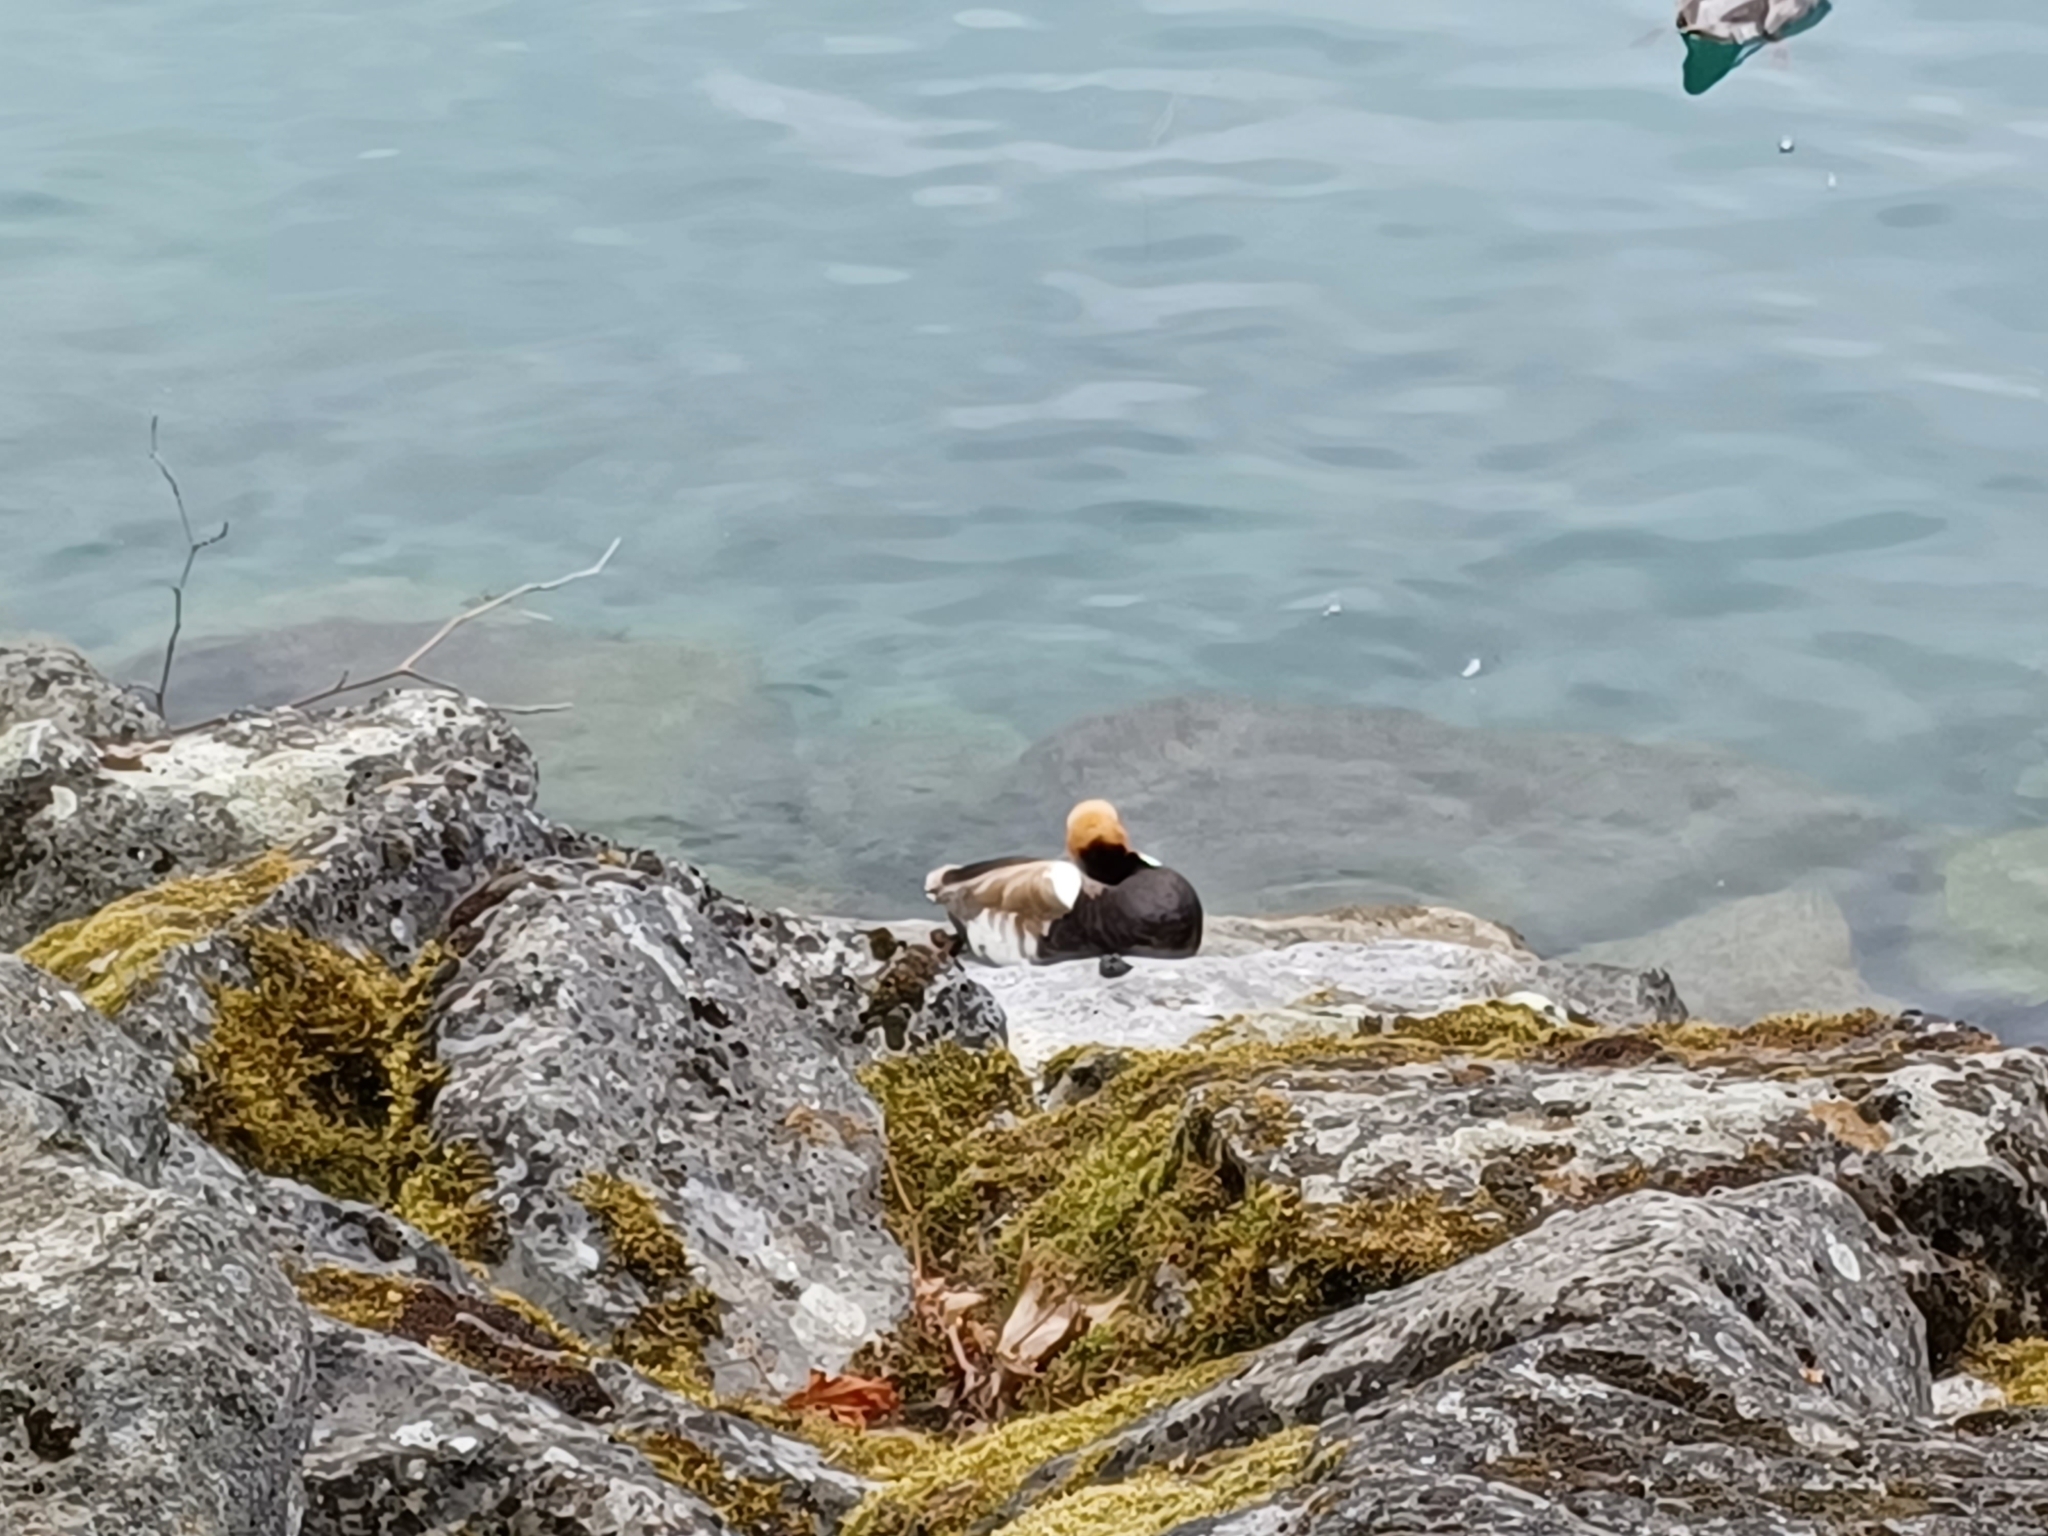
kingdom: Animalia
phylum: Chordata
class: Aves
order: Anseriformes
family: Anatidae
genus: Netta
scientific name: Netta rufina
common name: Red-crested pochard
